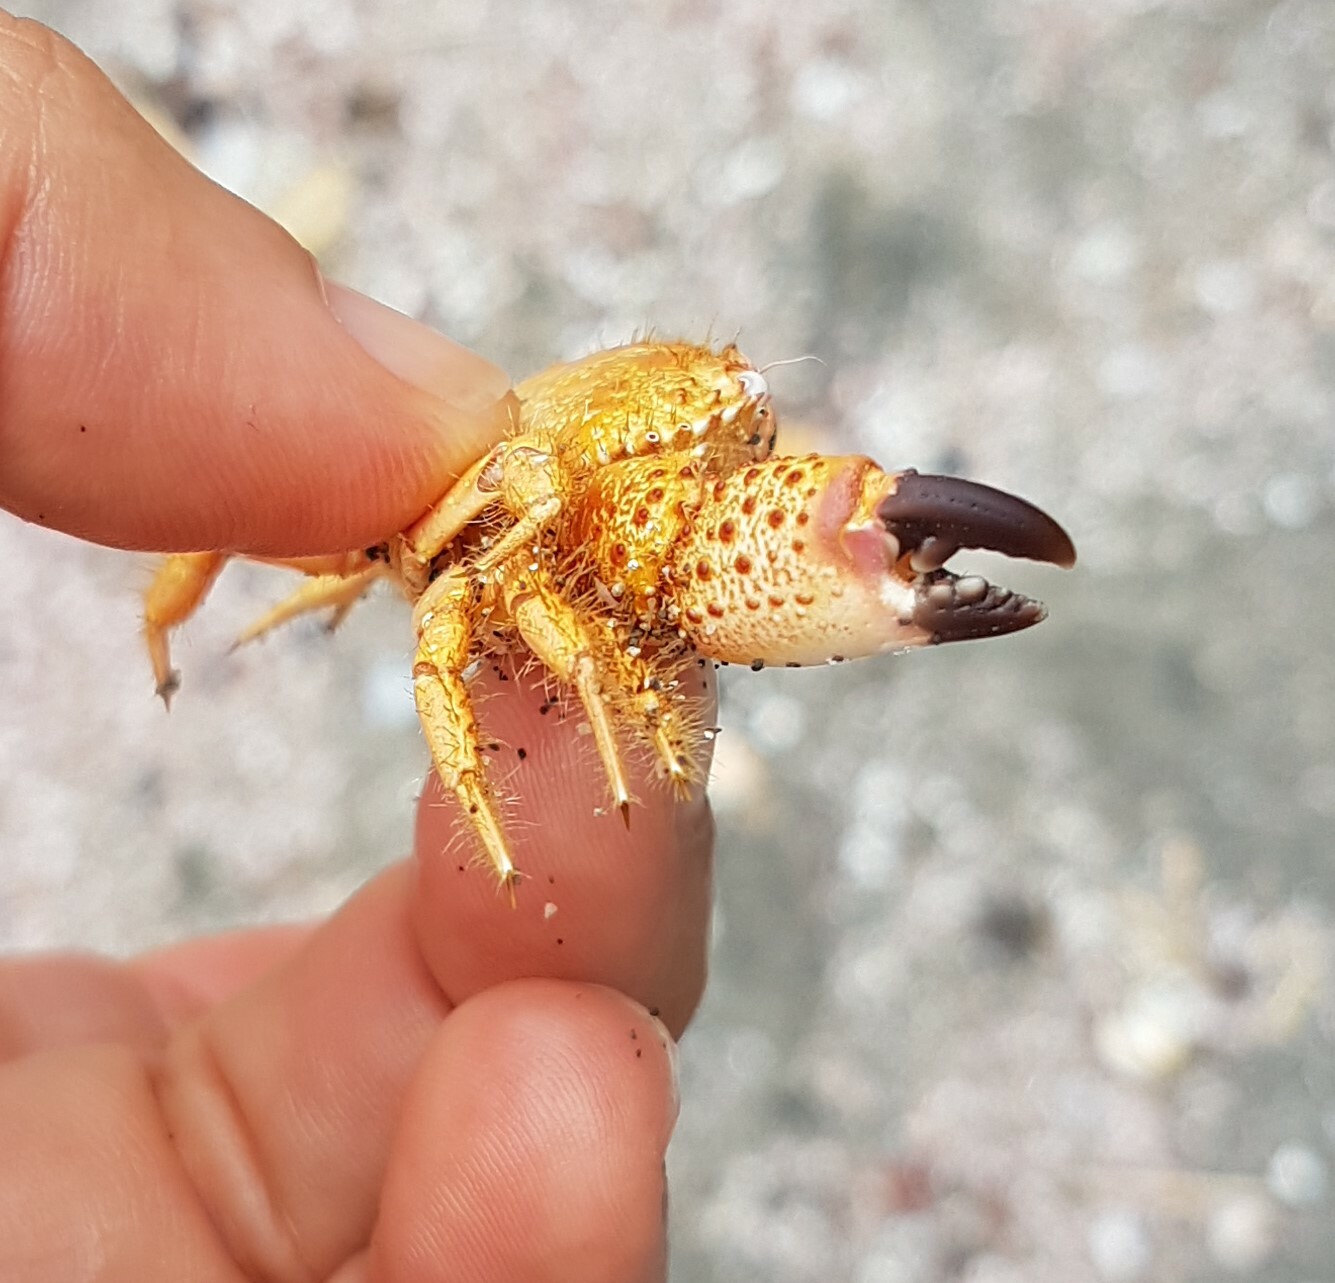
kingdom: Animalia
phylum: Arthropoda
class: Malacostraca
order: Decapoda
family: Eriphiidae
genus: Eriphia
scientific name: Eriphia verrucosa
